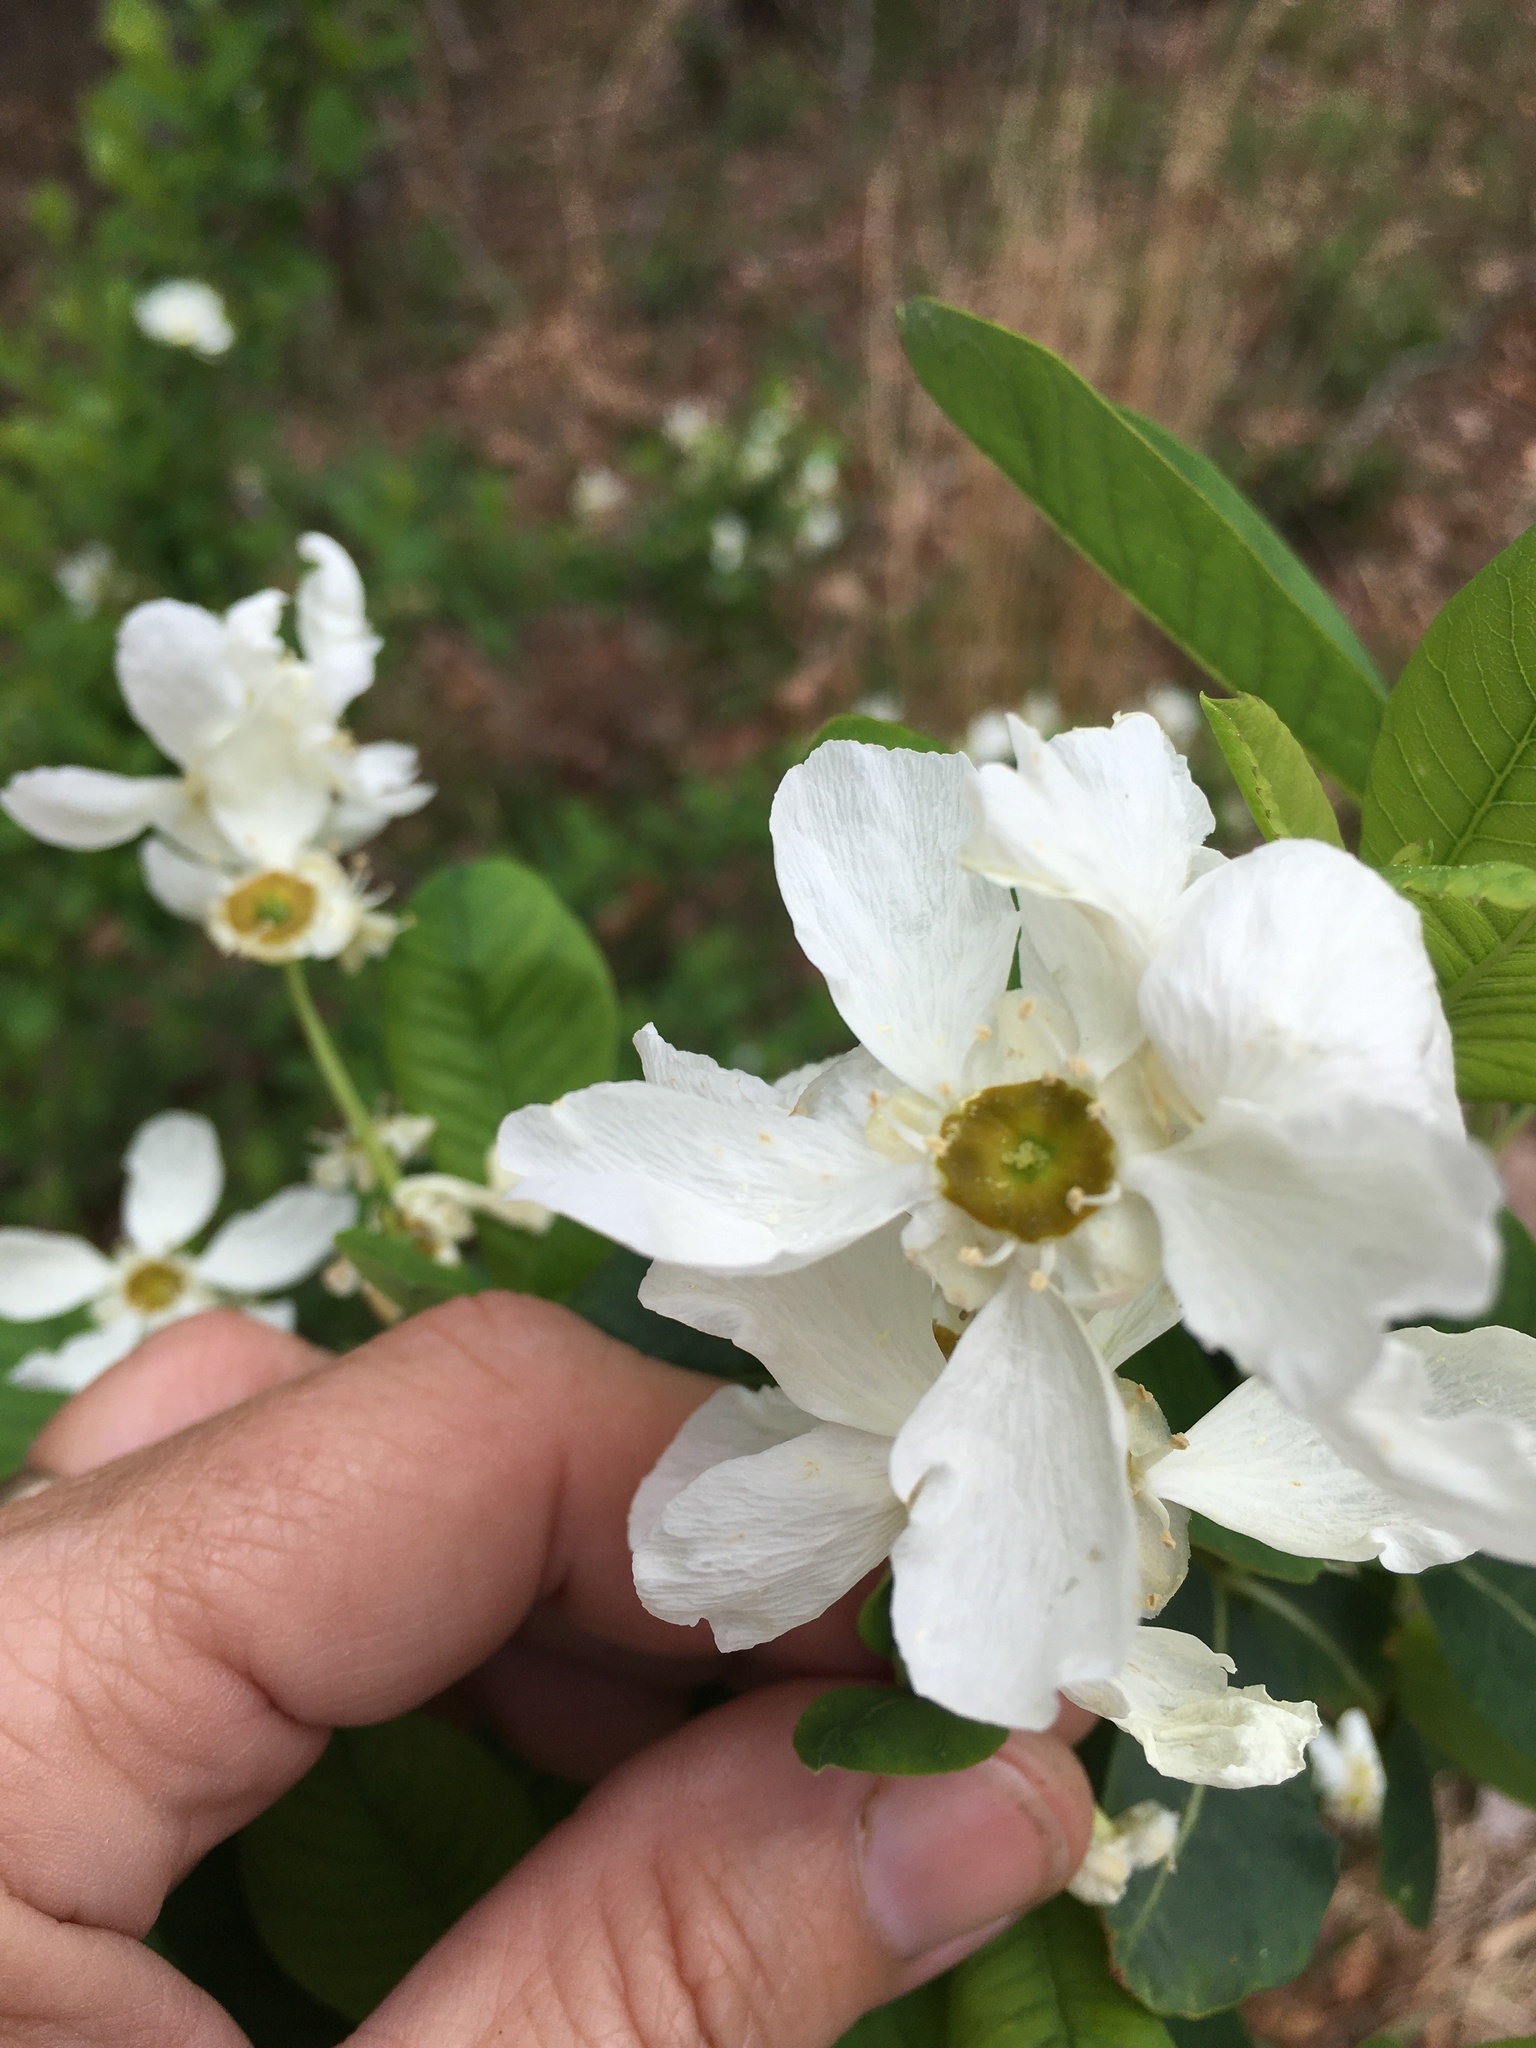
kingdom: Plantae
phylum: Tracheophyta
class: Magnoliopsida
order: Rosales
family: Rosaceae
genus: Exochorda
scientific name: Exochorda racemosa
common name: Common pearlbrush
